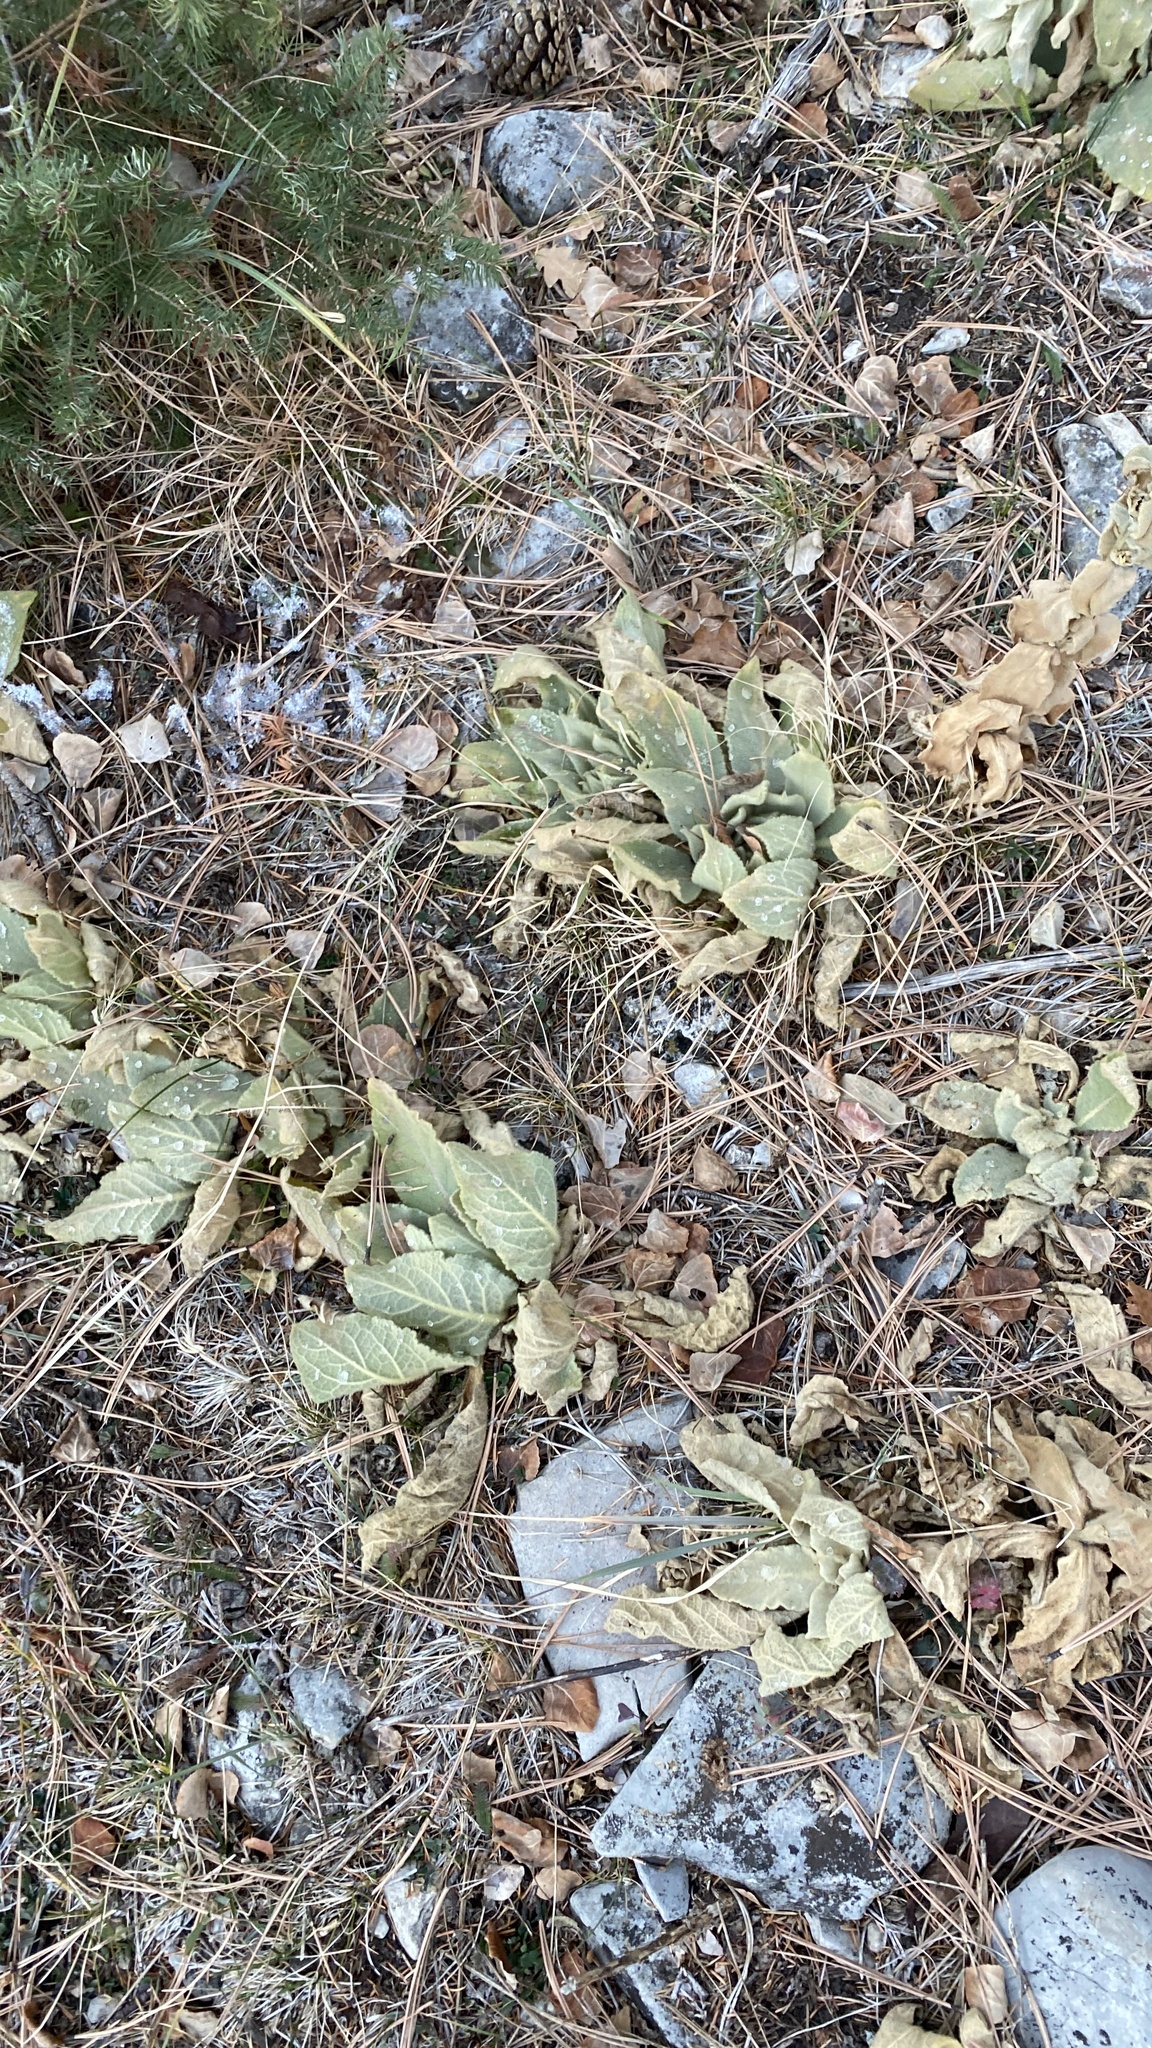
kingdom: Plantae
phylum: Tracheophyta
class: Magnoliopsida
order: Lamiales
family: Scrophulariaceae
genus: Verbascum
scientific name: Verbascum thapsus
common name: Common mullein
